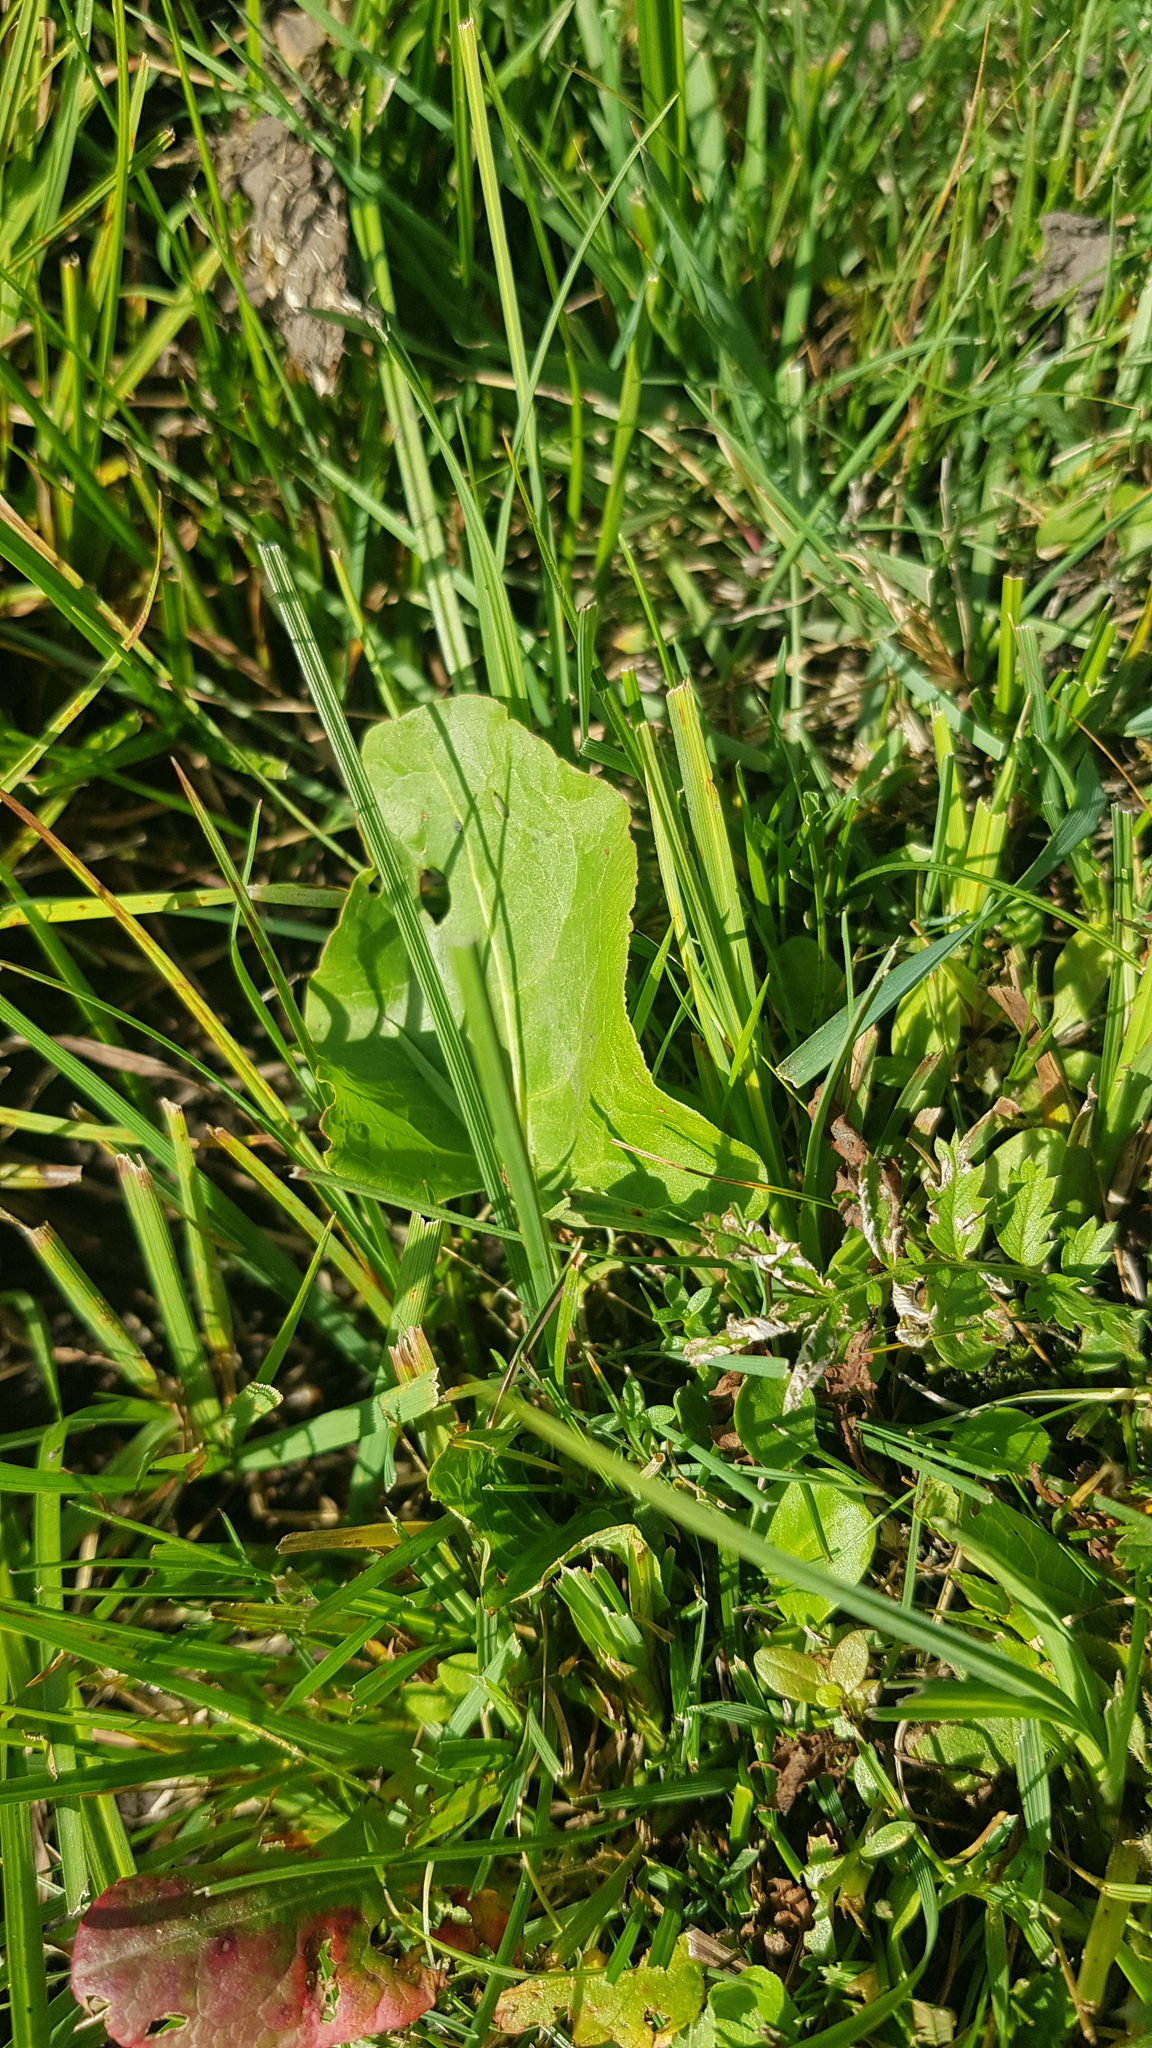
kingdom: Plantae
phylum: Tracheophyta
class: Liliopsida
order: Poales
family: Poaceae
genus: Leymus
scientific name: Leymus chinensis
